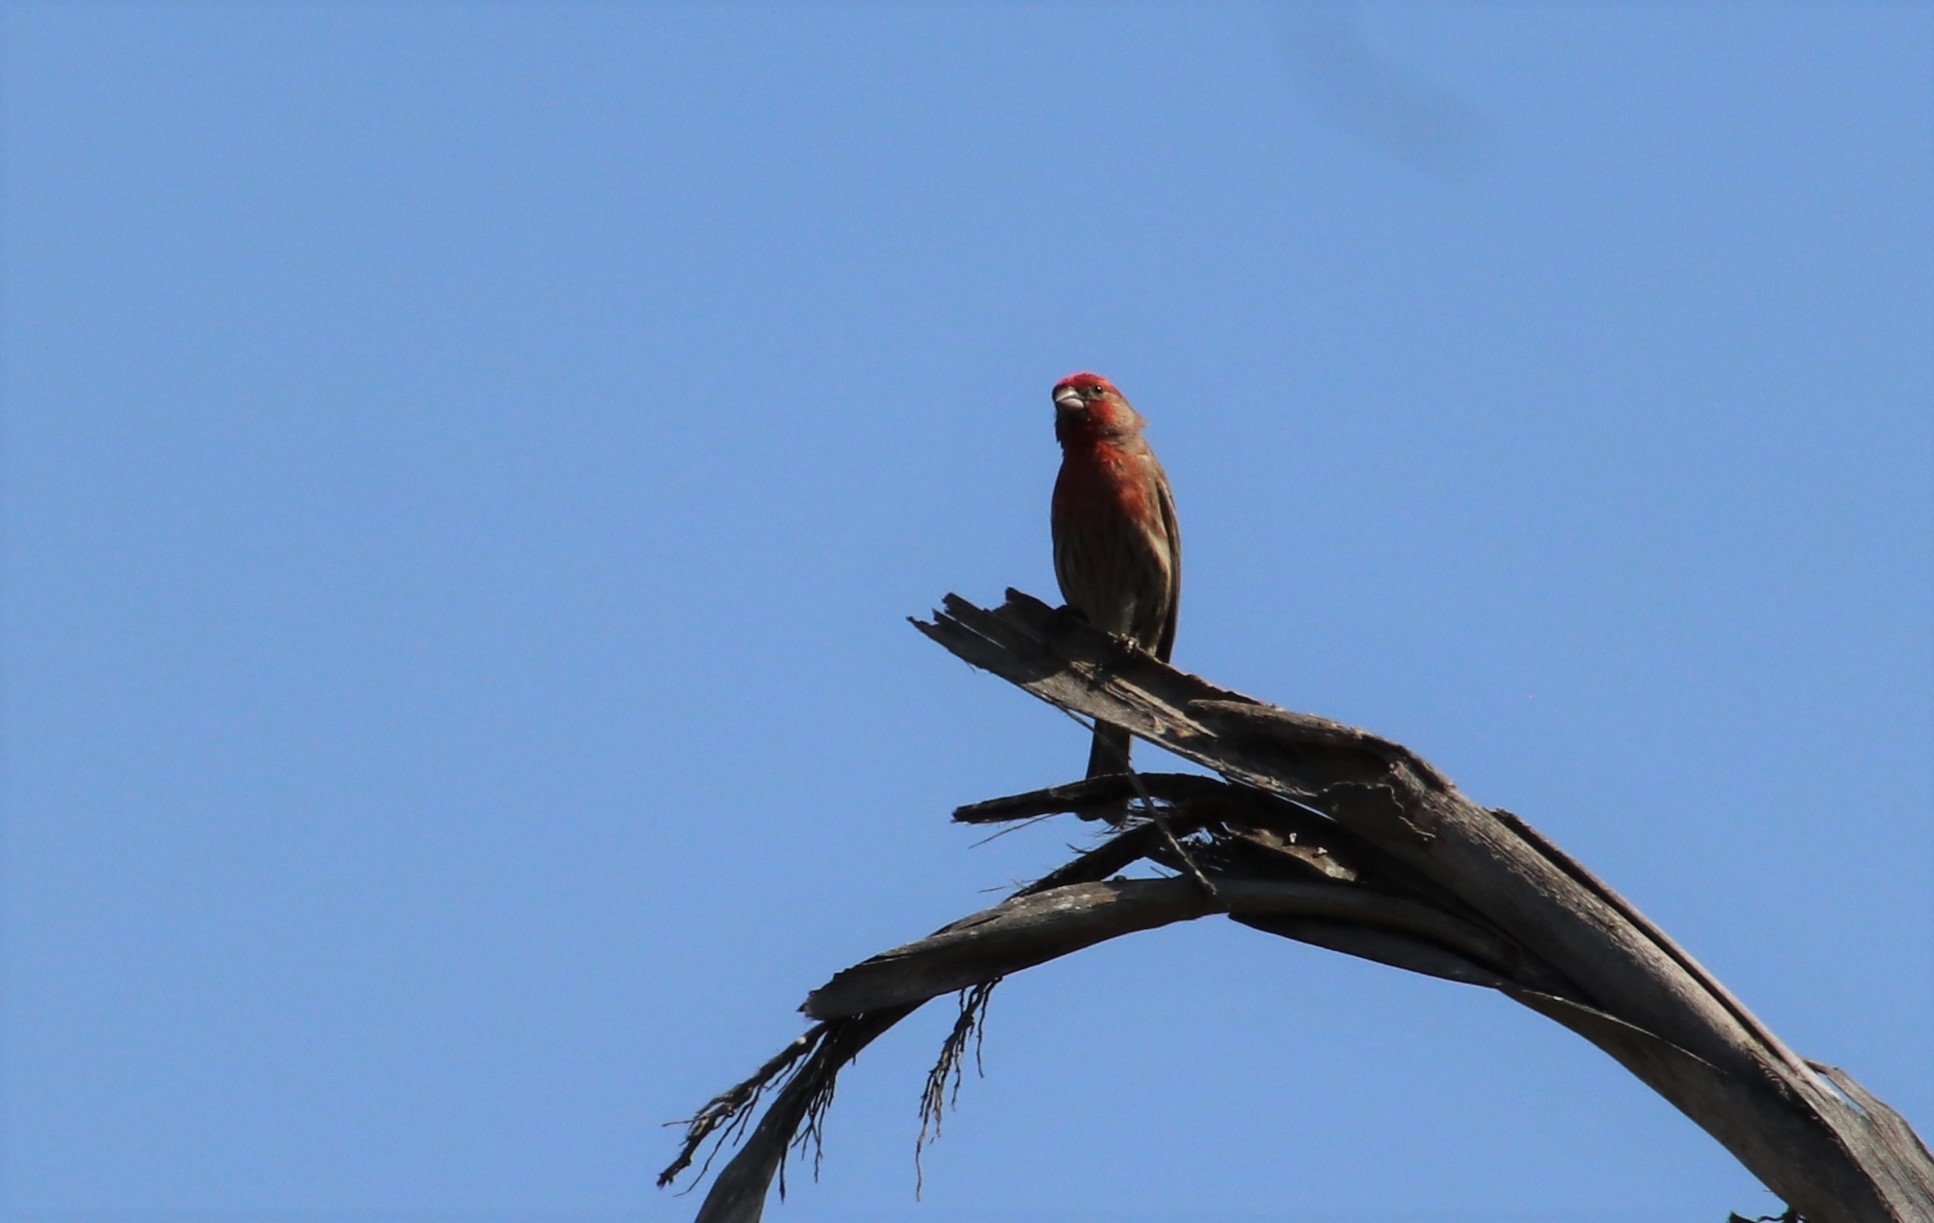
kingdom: Animalia
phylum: Chordata
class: Aves
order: Passeriformes
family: Fringillidae
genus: Haemorhous
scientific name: Haemorhous mexicanus
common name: House finch
